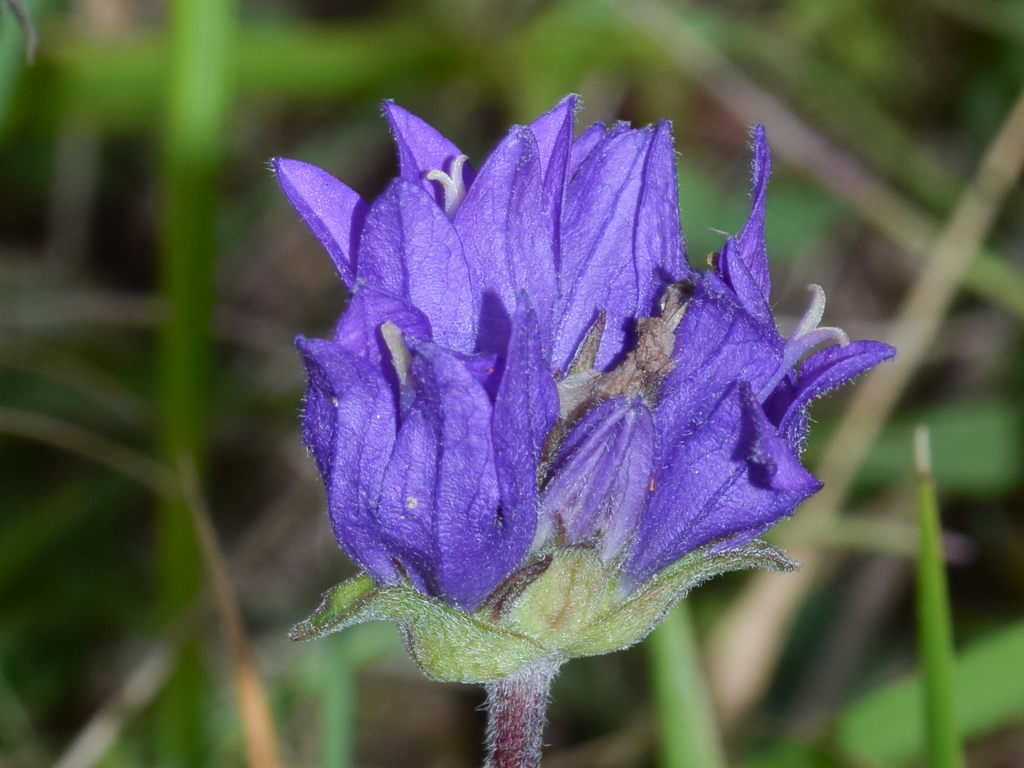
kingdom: Plantae
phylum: Tracheophyta
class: Magnoliopsida
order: Asterales
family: Campanulaceae
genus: Campanula
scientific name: Campanula glomerata
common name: Clustered bellflower
